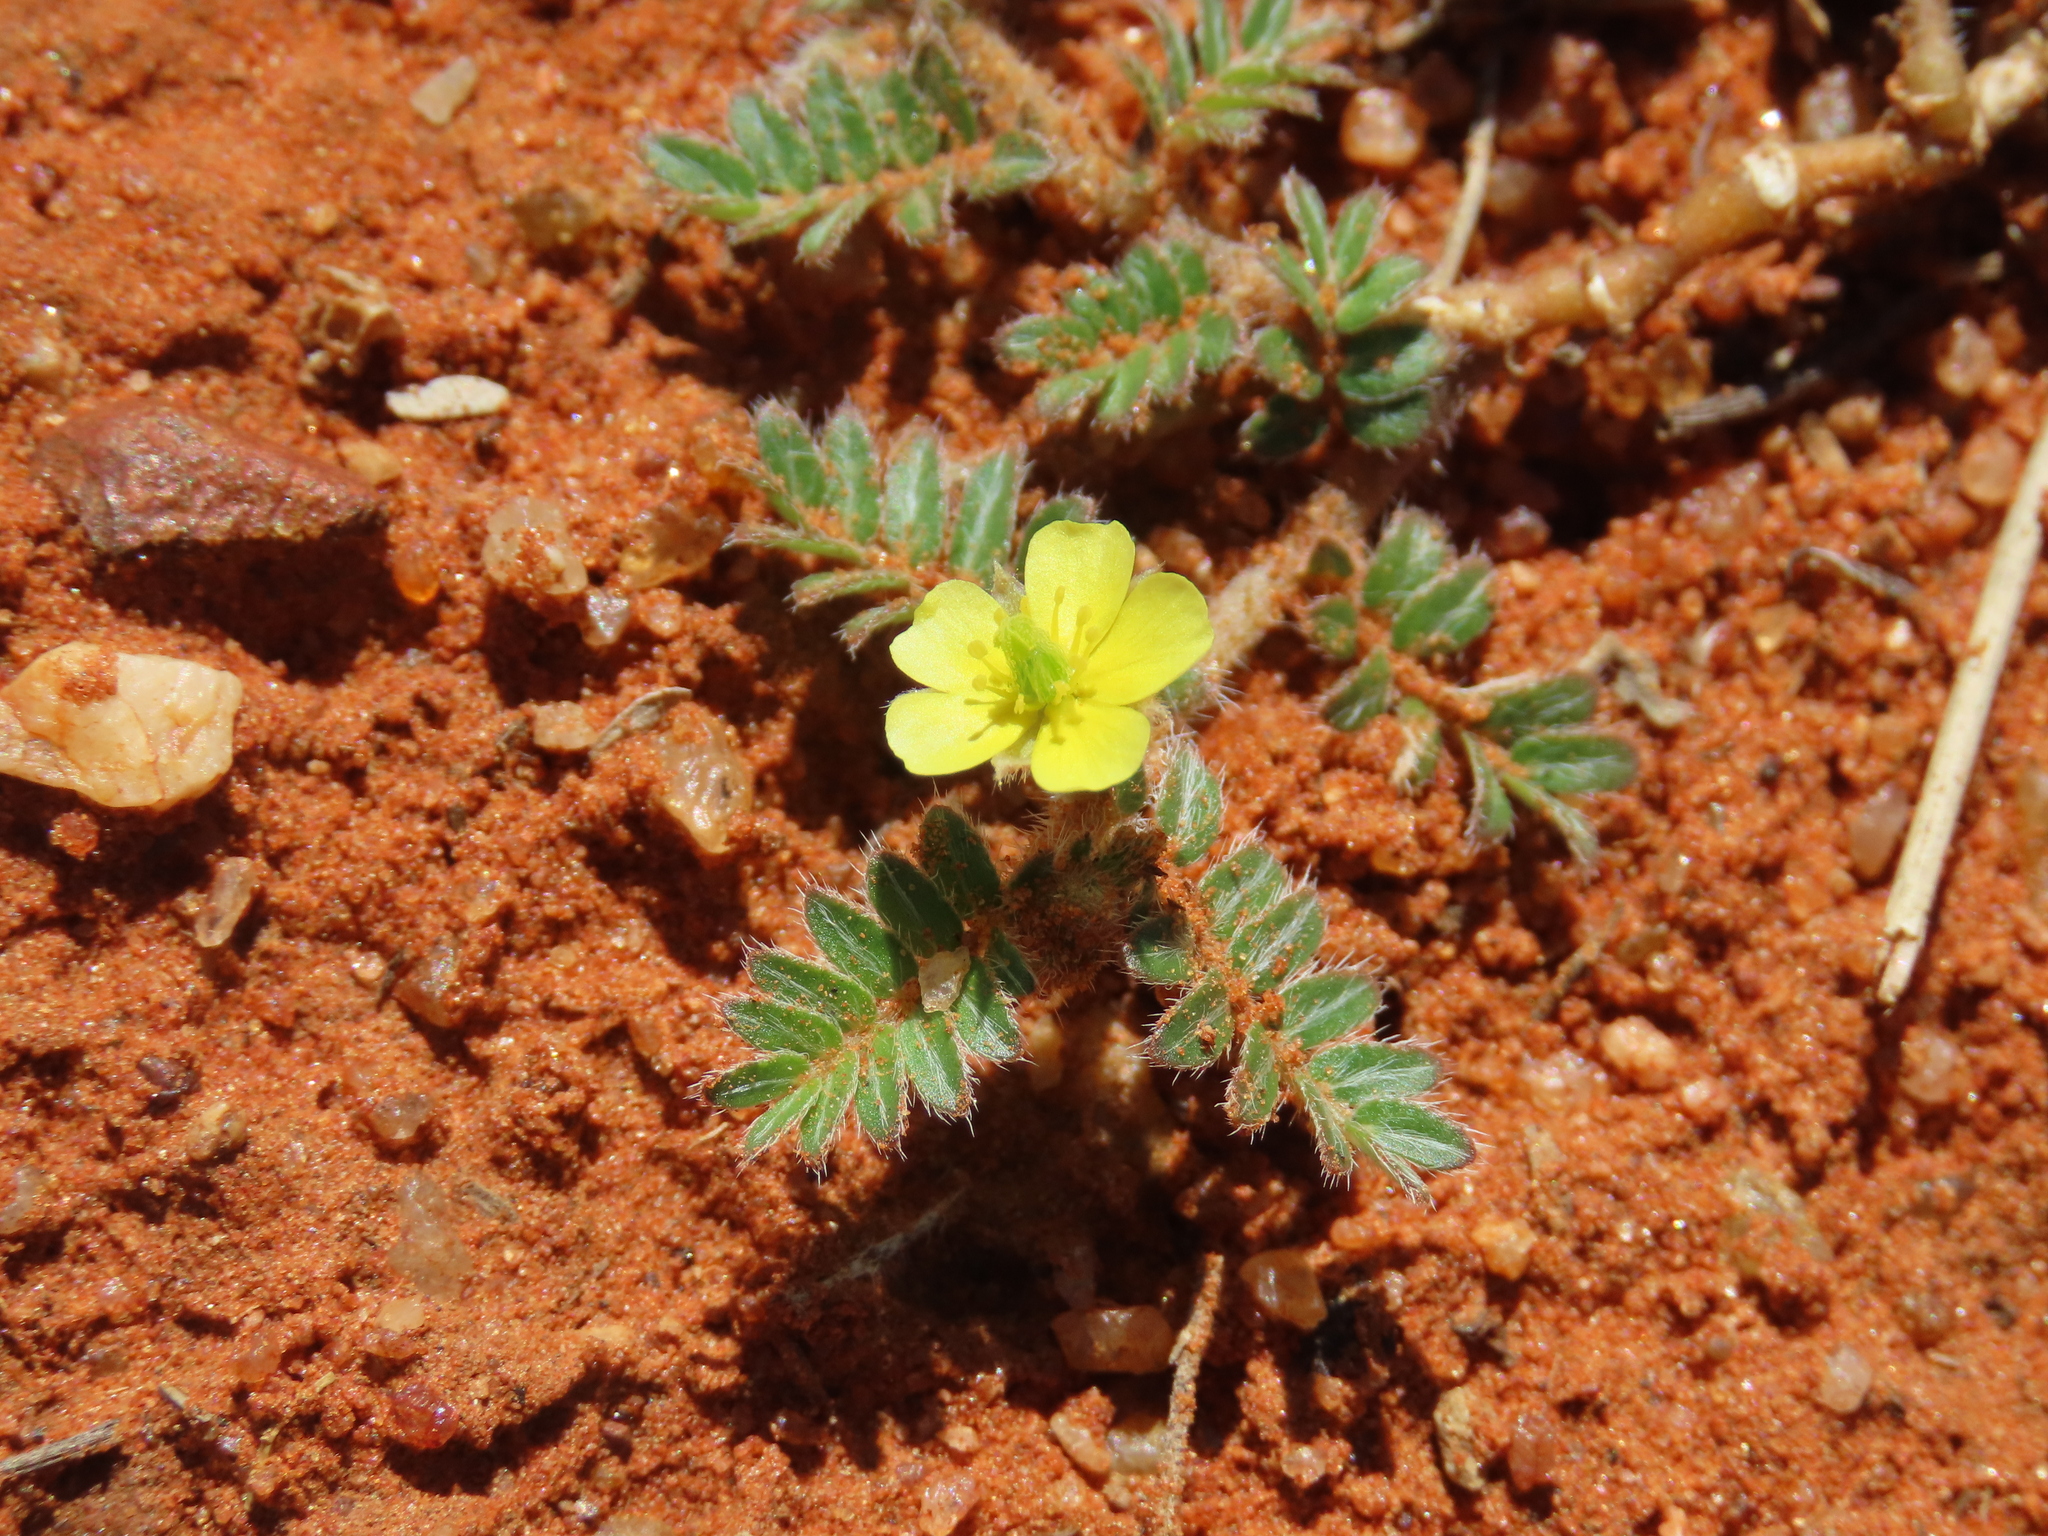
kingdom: Plantae
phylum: Tracheophyta
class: Magnoliopsida
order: Zygophyllales
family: Zygophyllaceae
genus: Tribulus
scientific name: Tribulus terrestris
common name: Puncturevine
